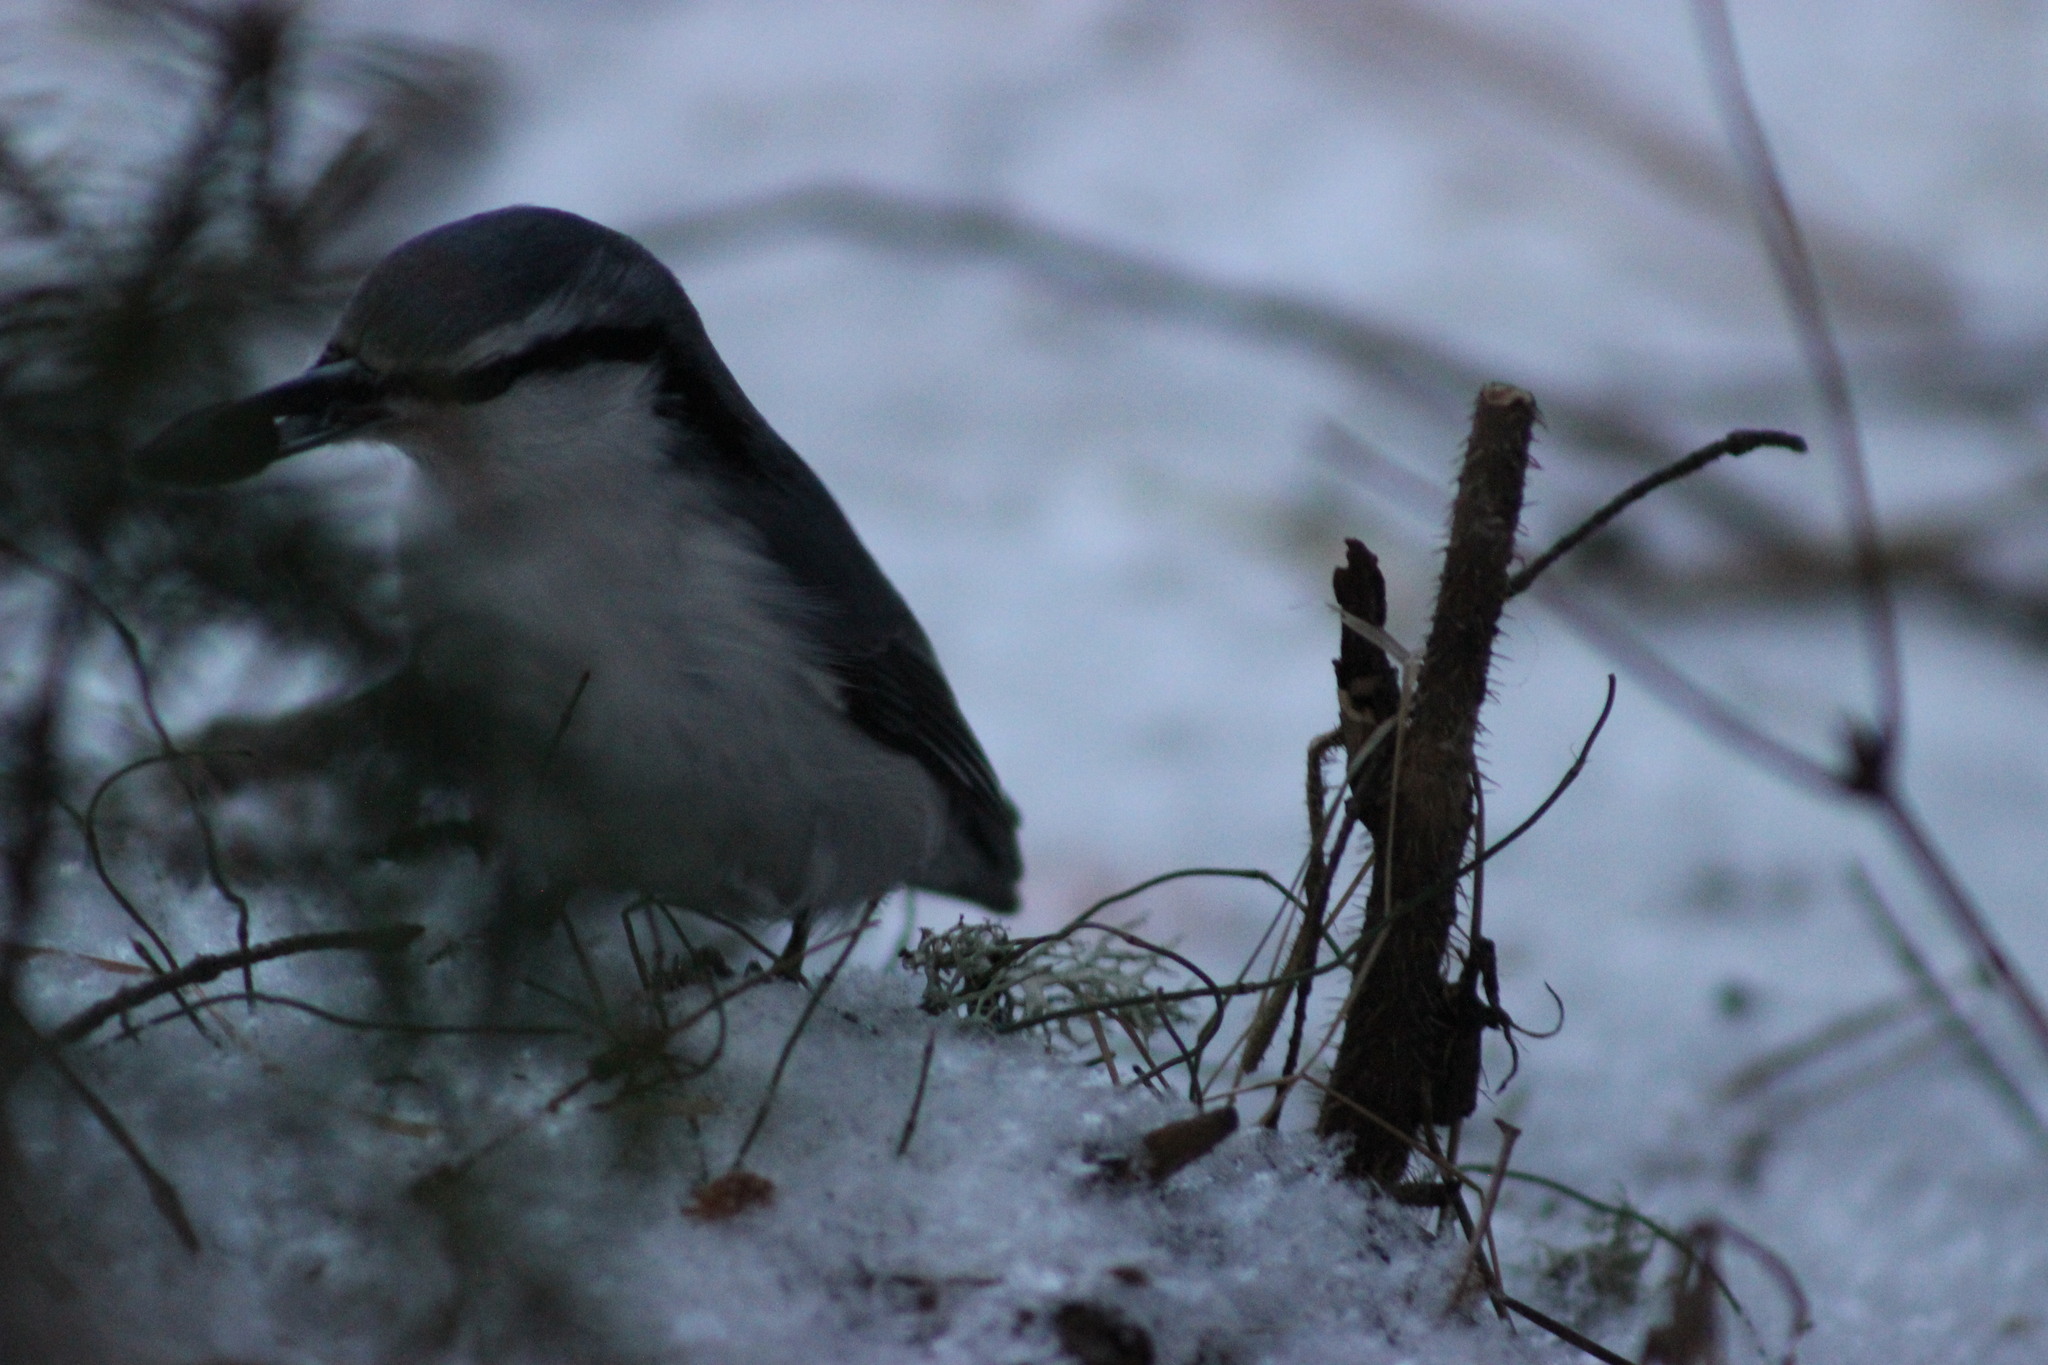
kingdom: Animalia
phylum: Chordata
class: Aves
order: Passeriformes
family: Sittidae
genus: Sitta
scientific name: Sitta europaea
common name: Eurasian nuthatch
